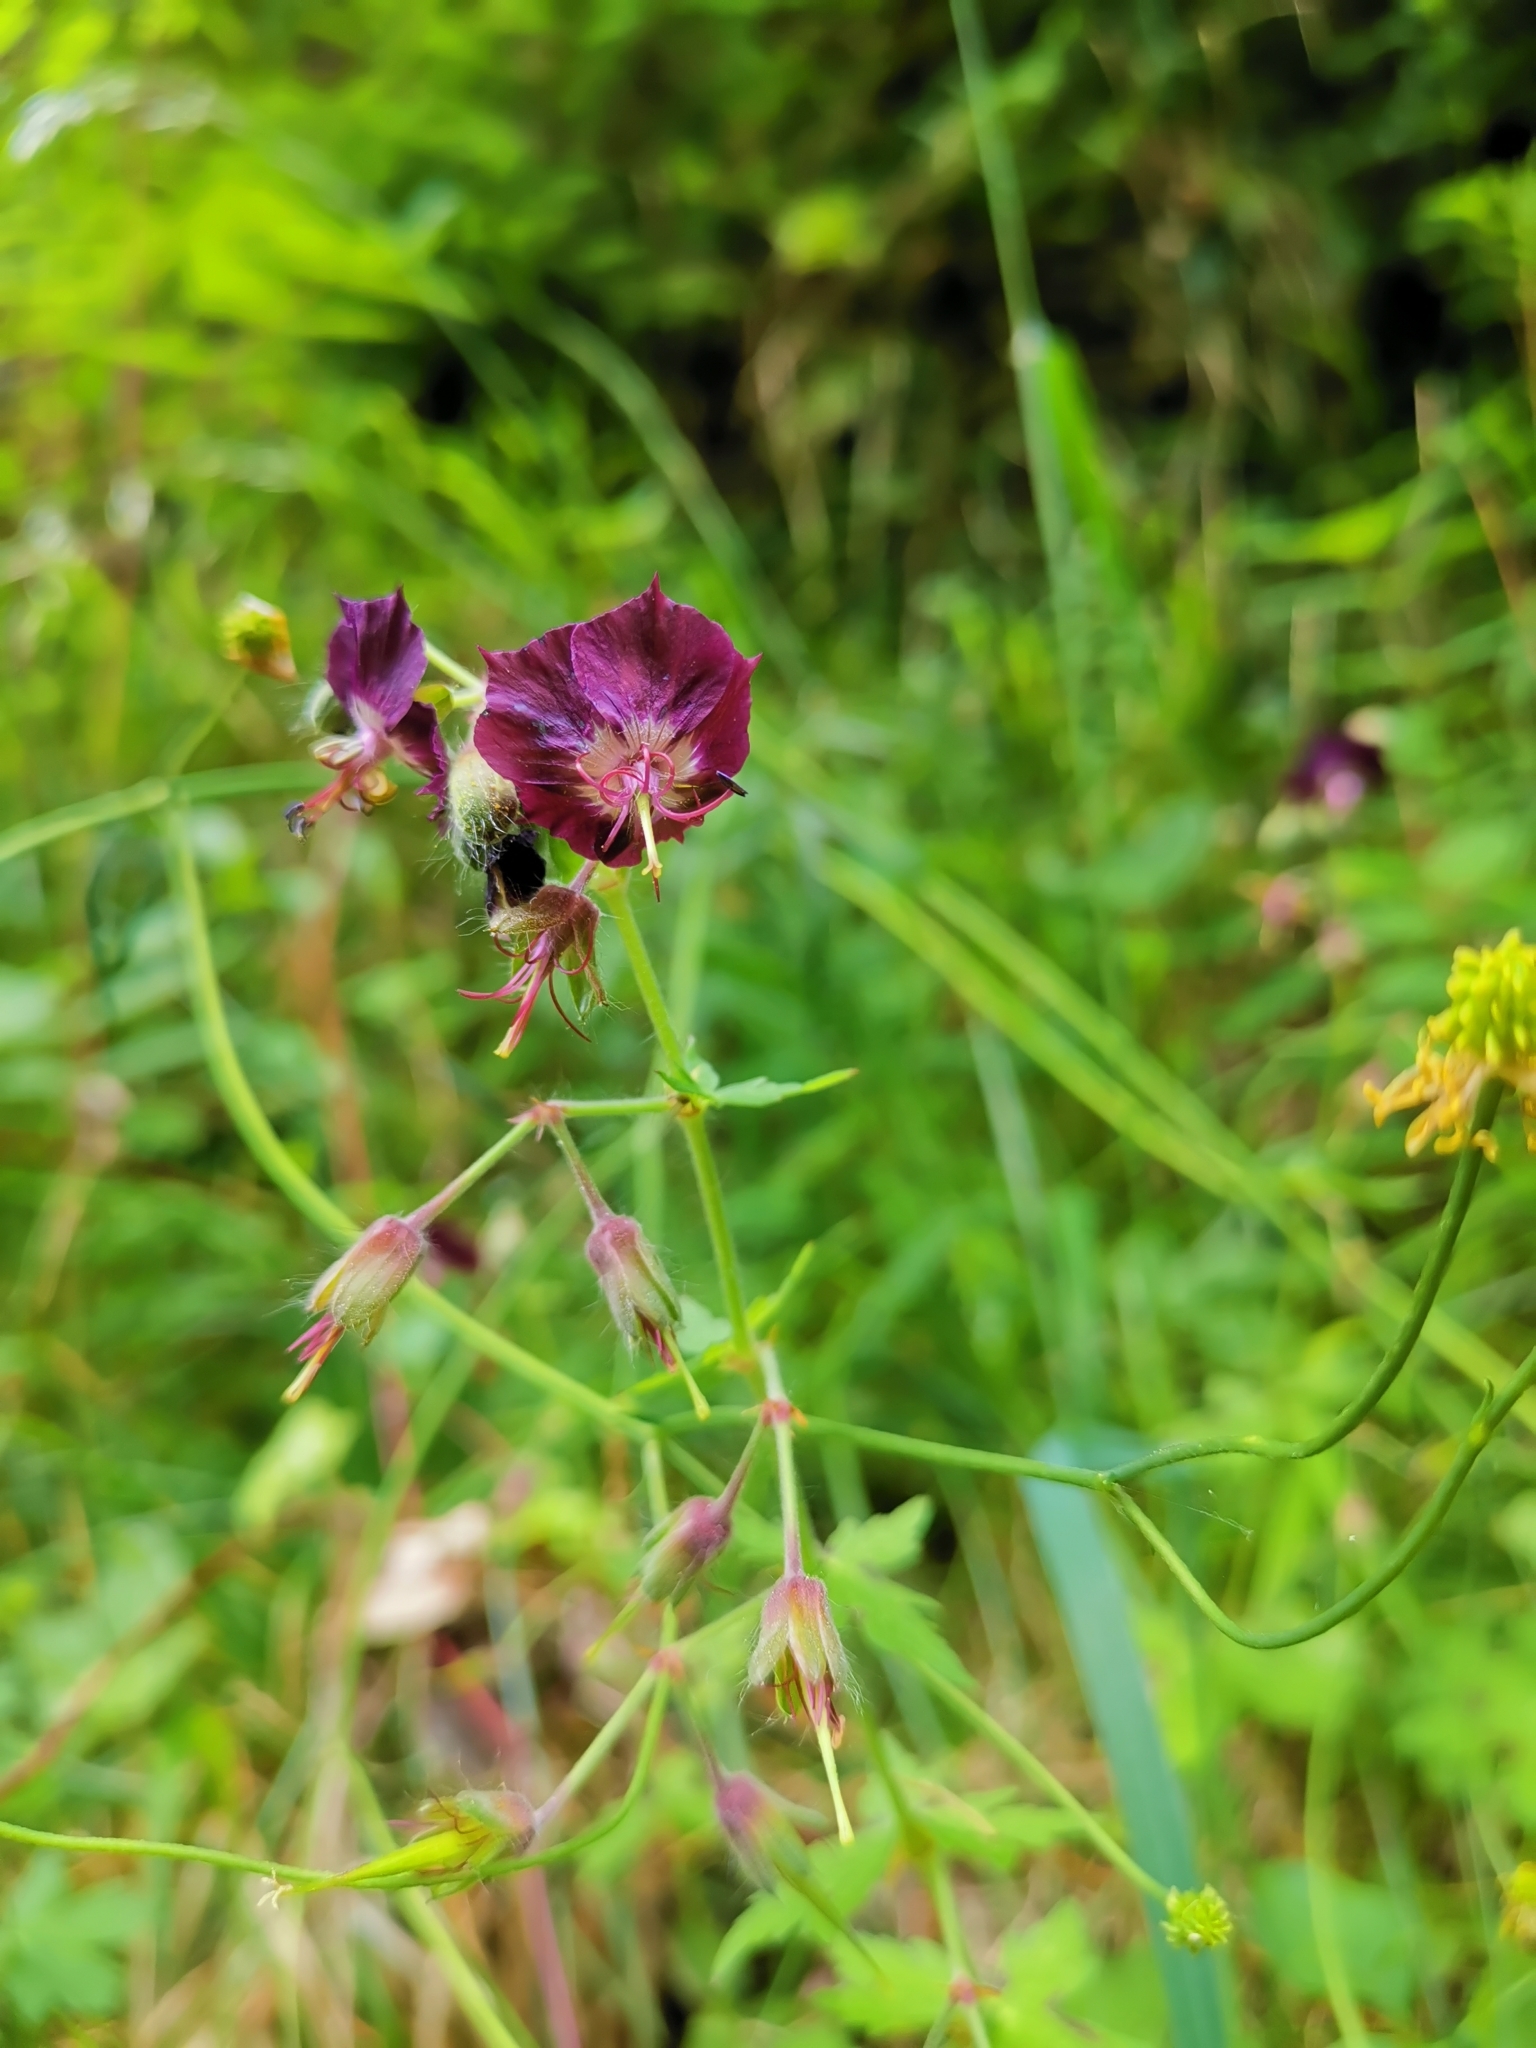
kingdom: Plantae
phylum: Tracheophyta
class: Magnoliopsida
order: Geraniales
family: Geraniaceae
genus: Geranium
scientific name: Geranium phaeum
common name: Dusky crane's-bill
